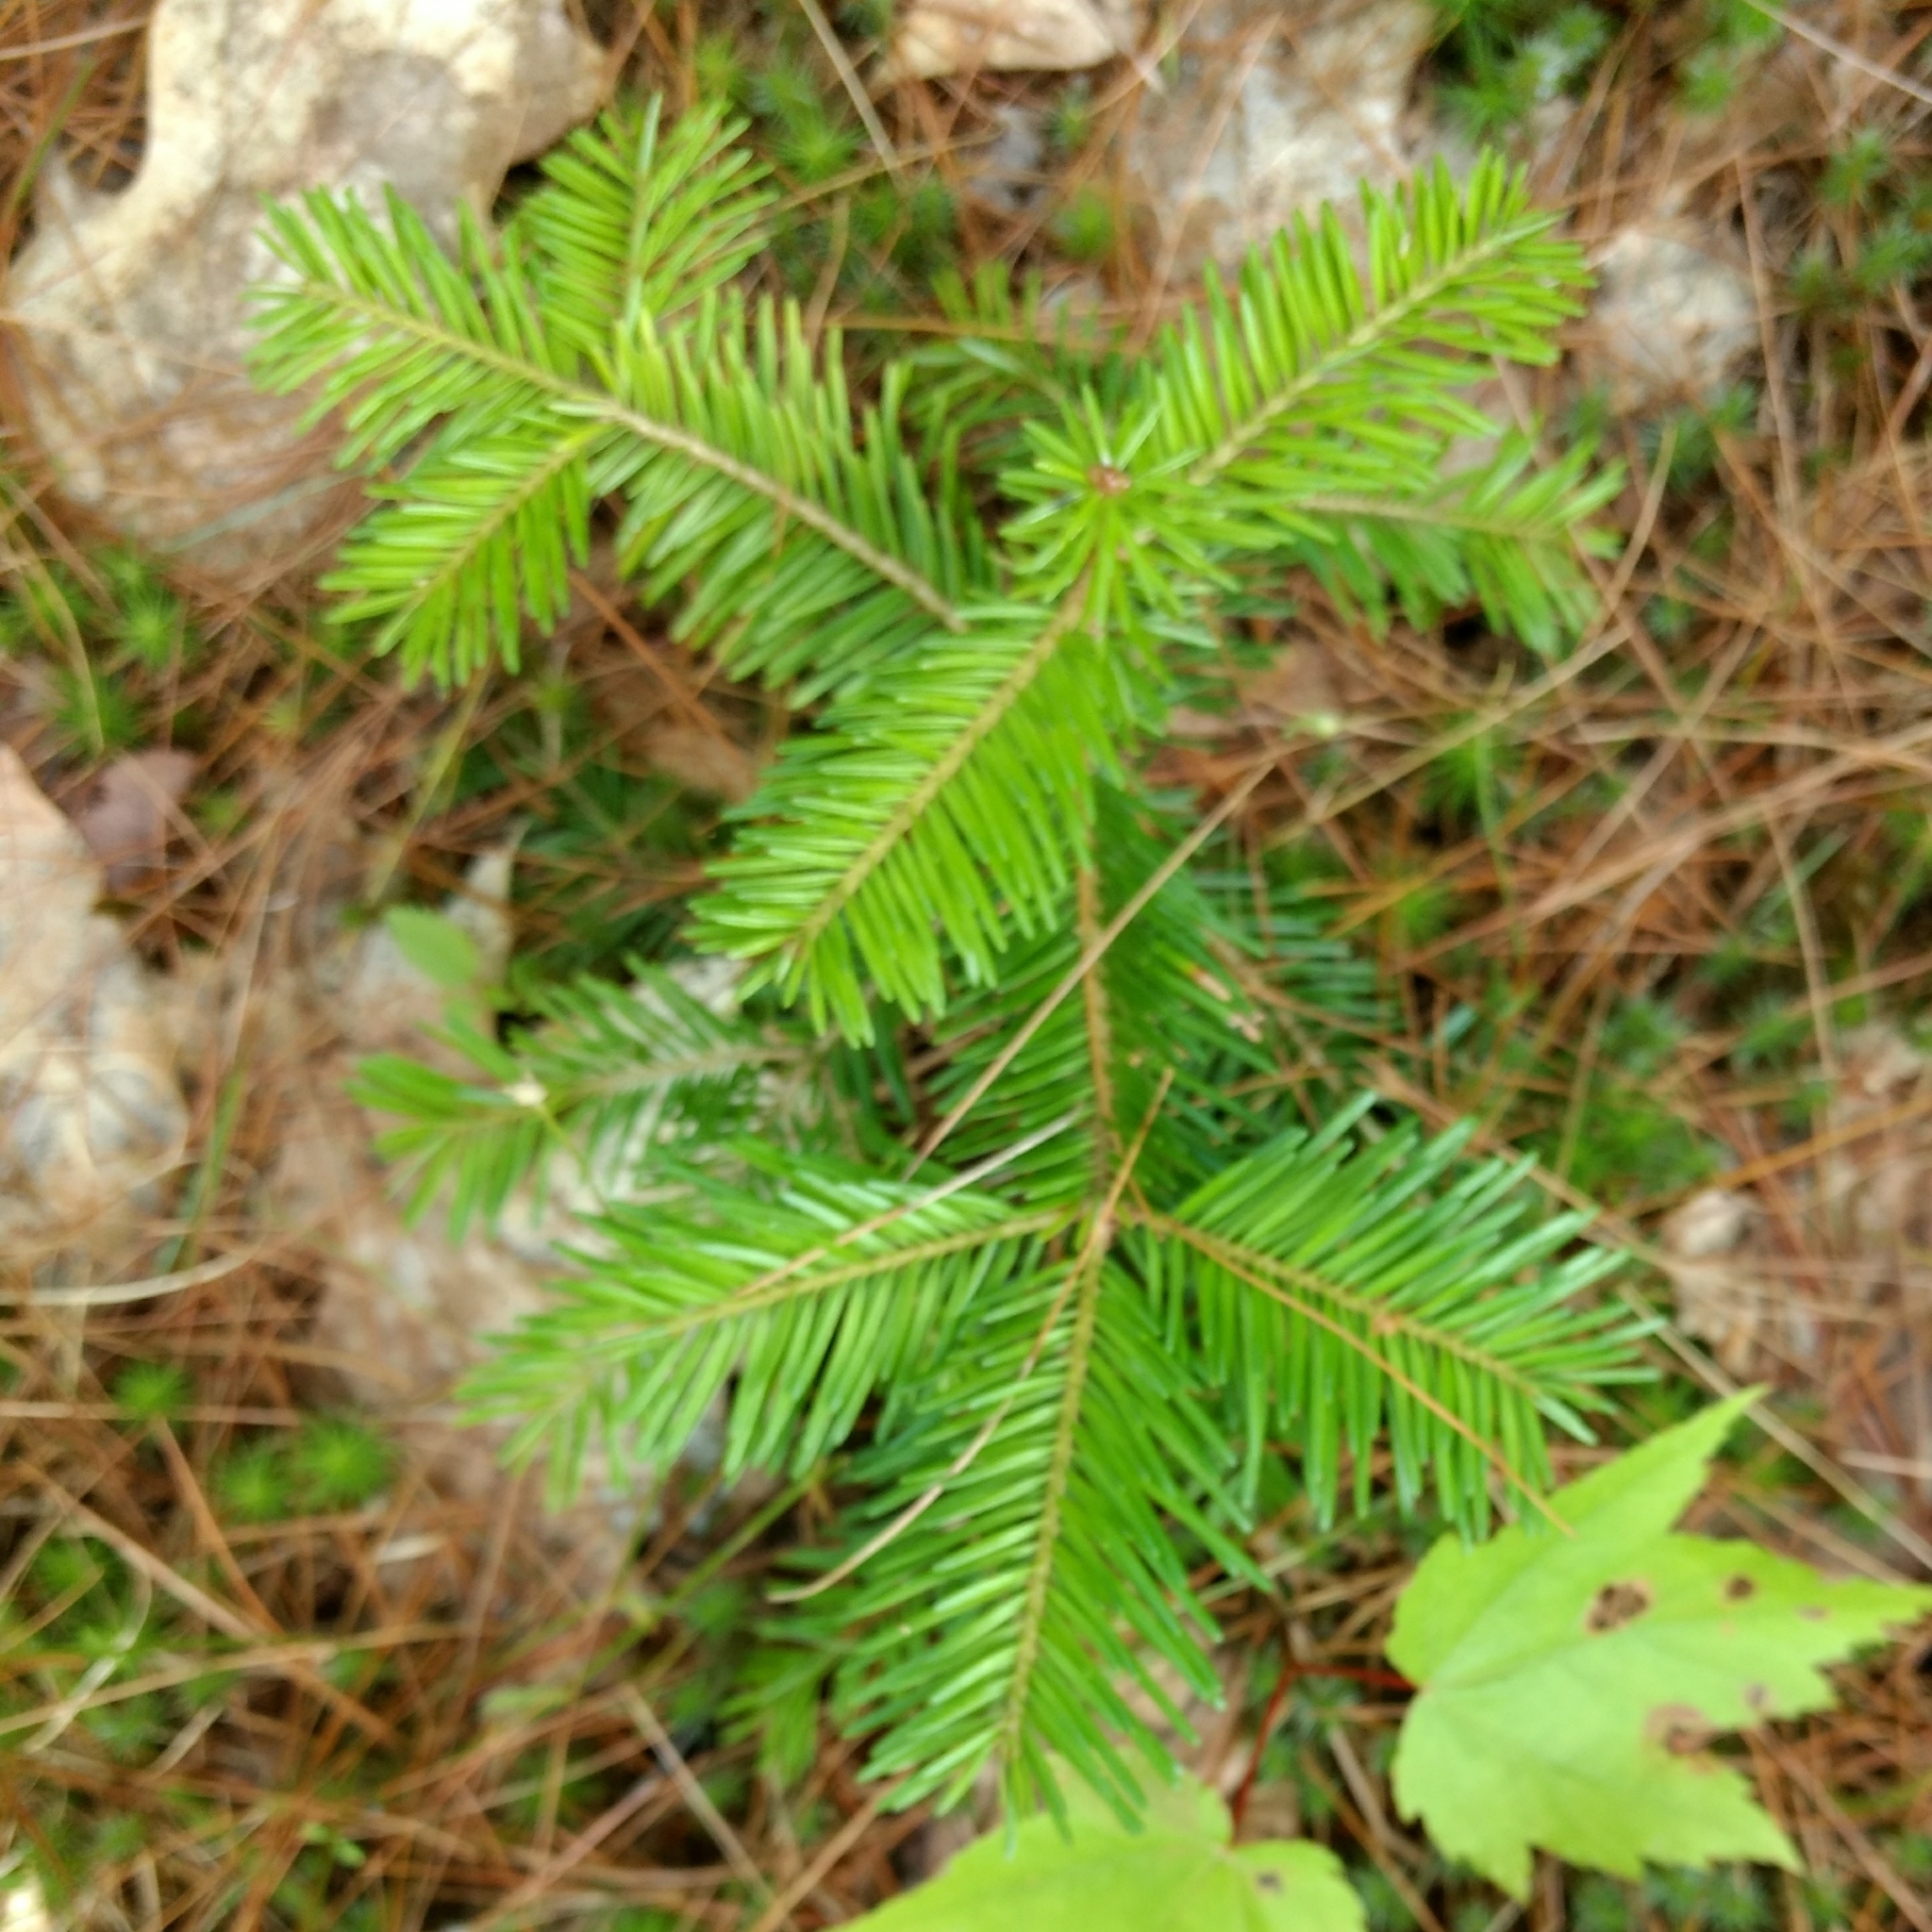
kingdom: Plantae
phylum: Tracheophyta
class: Pinopsida
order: Pinales
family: Pinaceae
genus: Abies
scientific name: Abies balsamea
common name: Balsam fir
